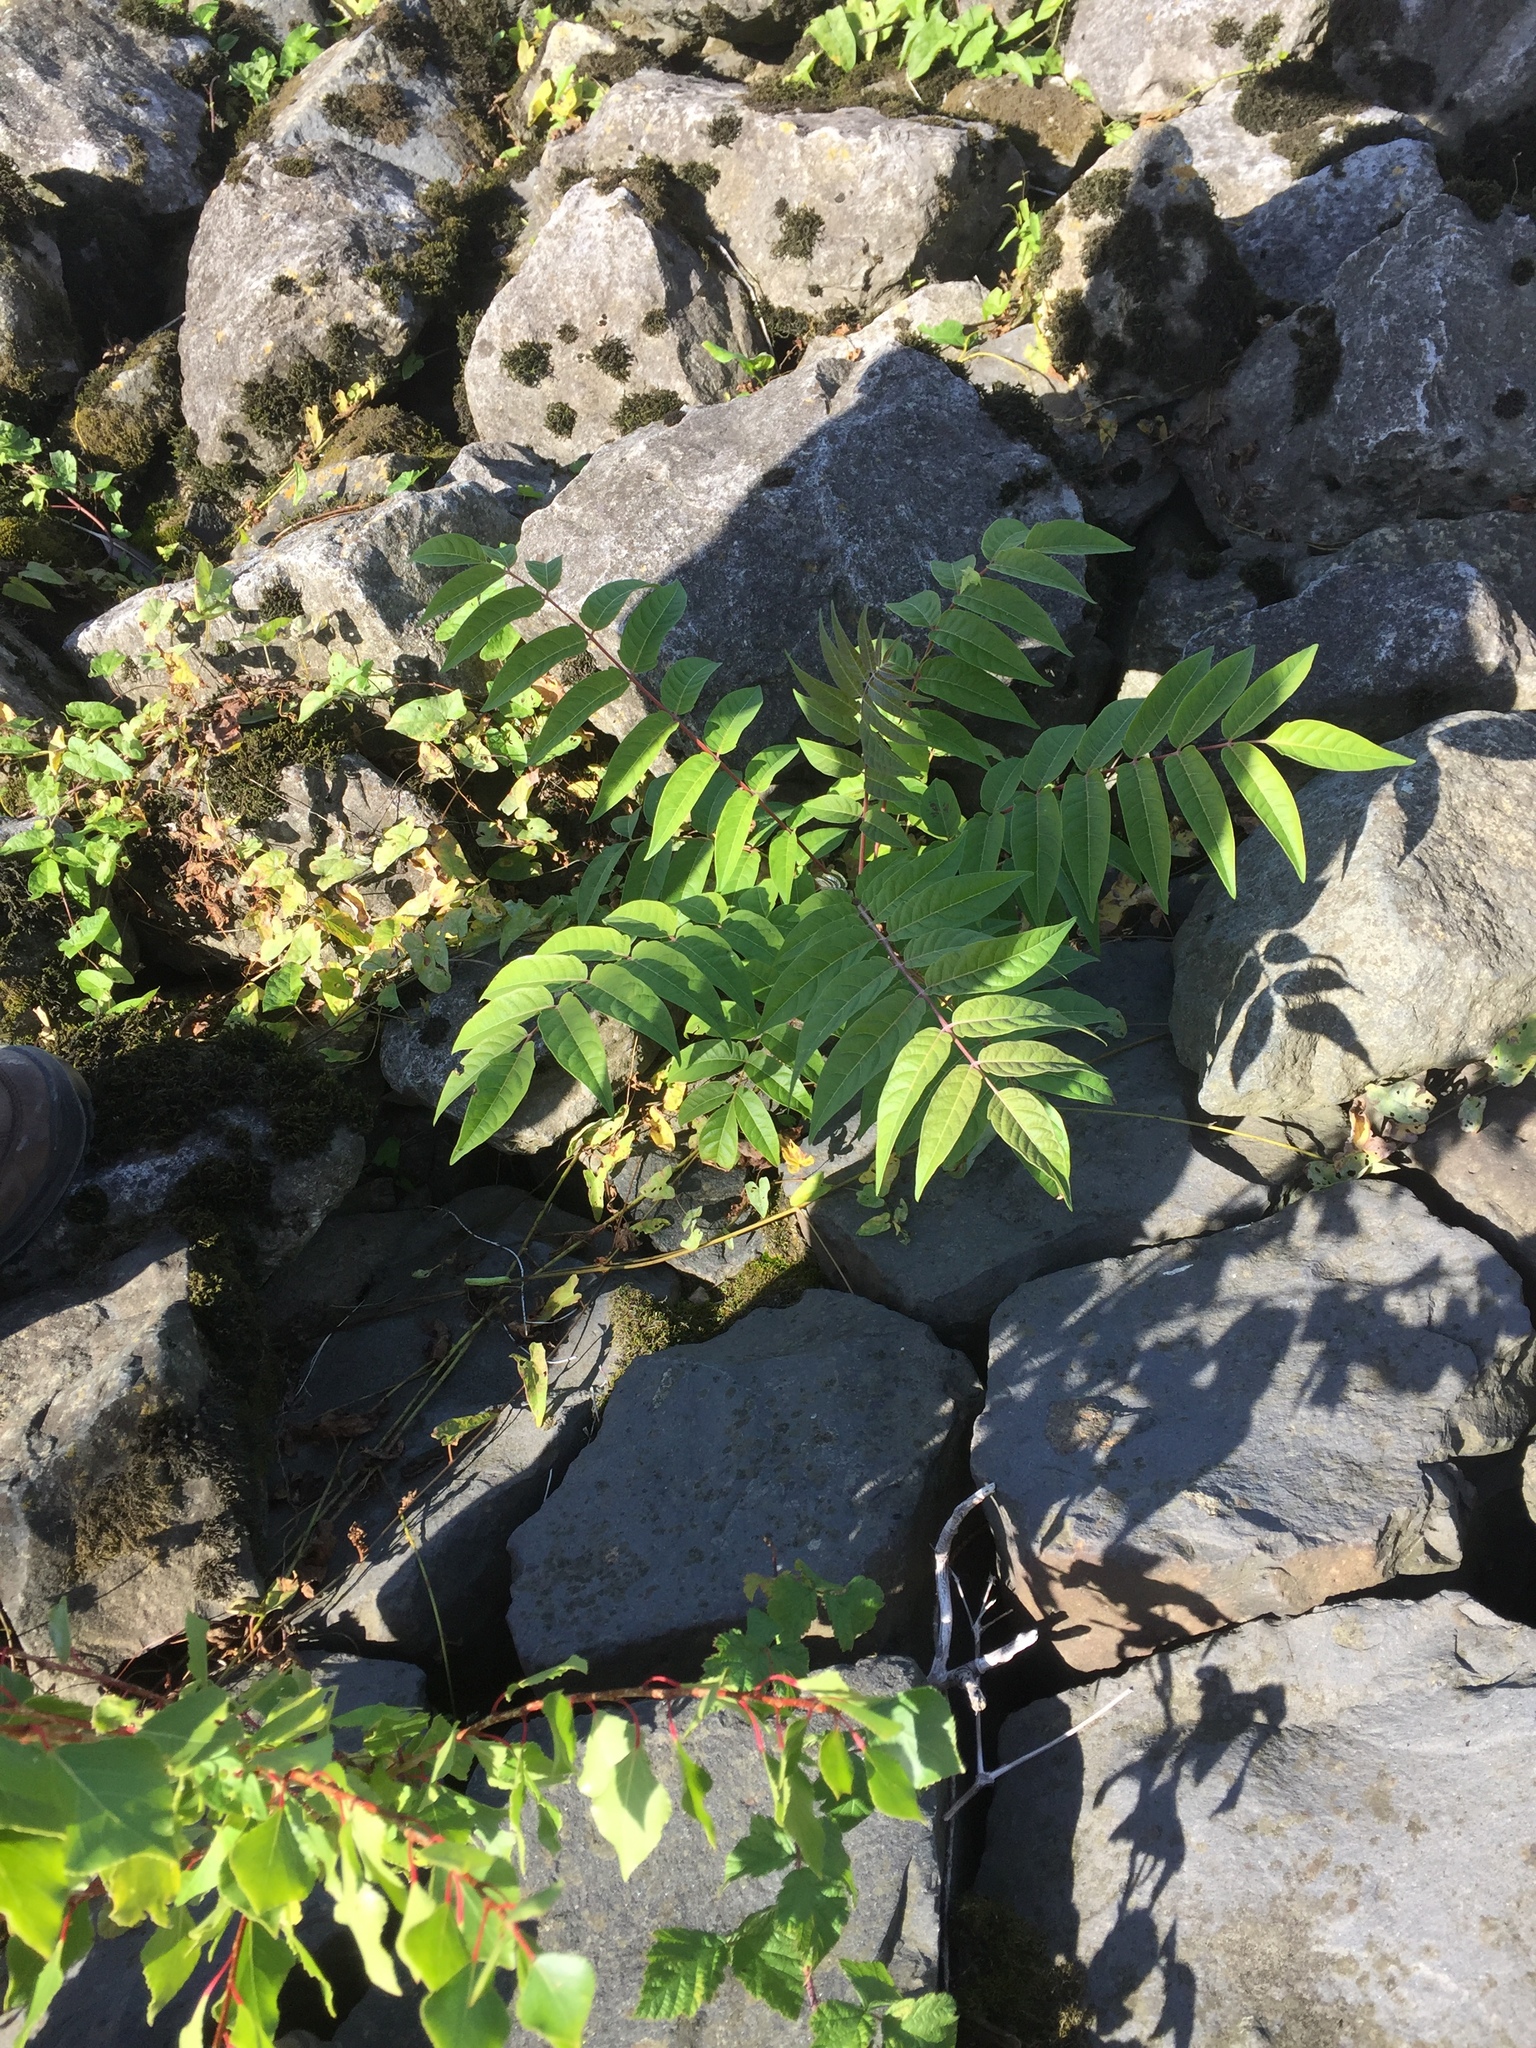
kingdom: Plantae
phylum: Tracheophyta
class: Magnoliopsida
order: Sapindales
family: Simaroubaceae
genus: Ailanthus
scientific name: Ailanthus altissima
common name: Tree-of-heaven
